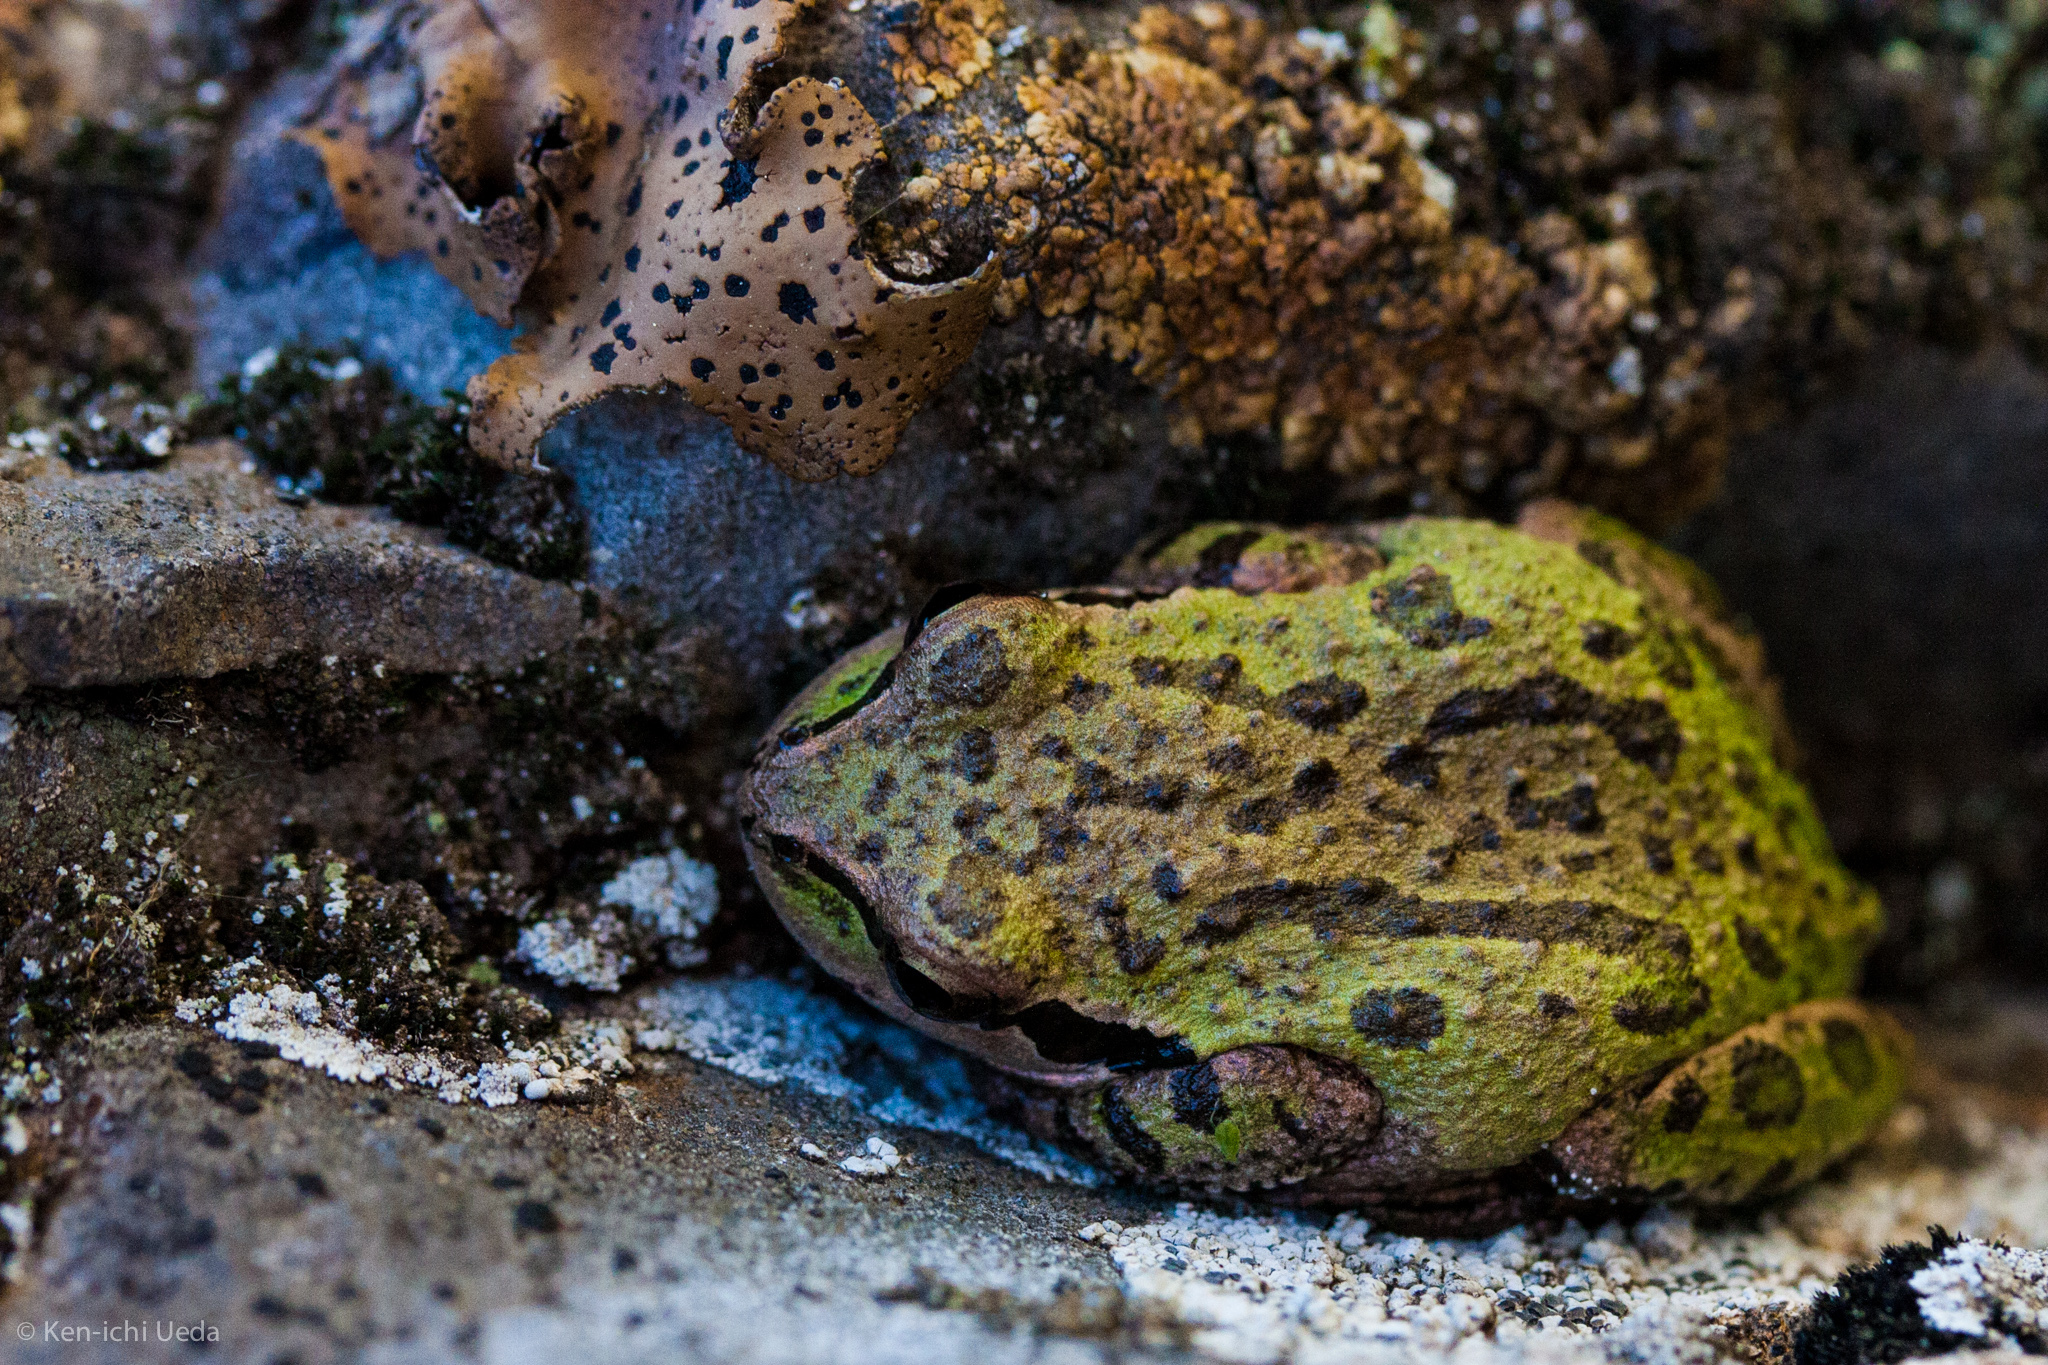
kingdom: Animalia
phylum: Chordata
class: Amphibia
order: Anura
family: Hylidae
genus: Pseudacris
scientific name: Pseudacris regilla
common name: Pacific chorus frog
